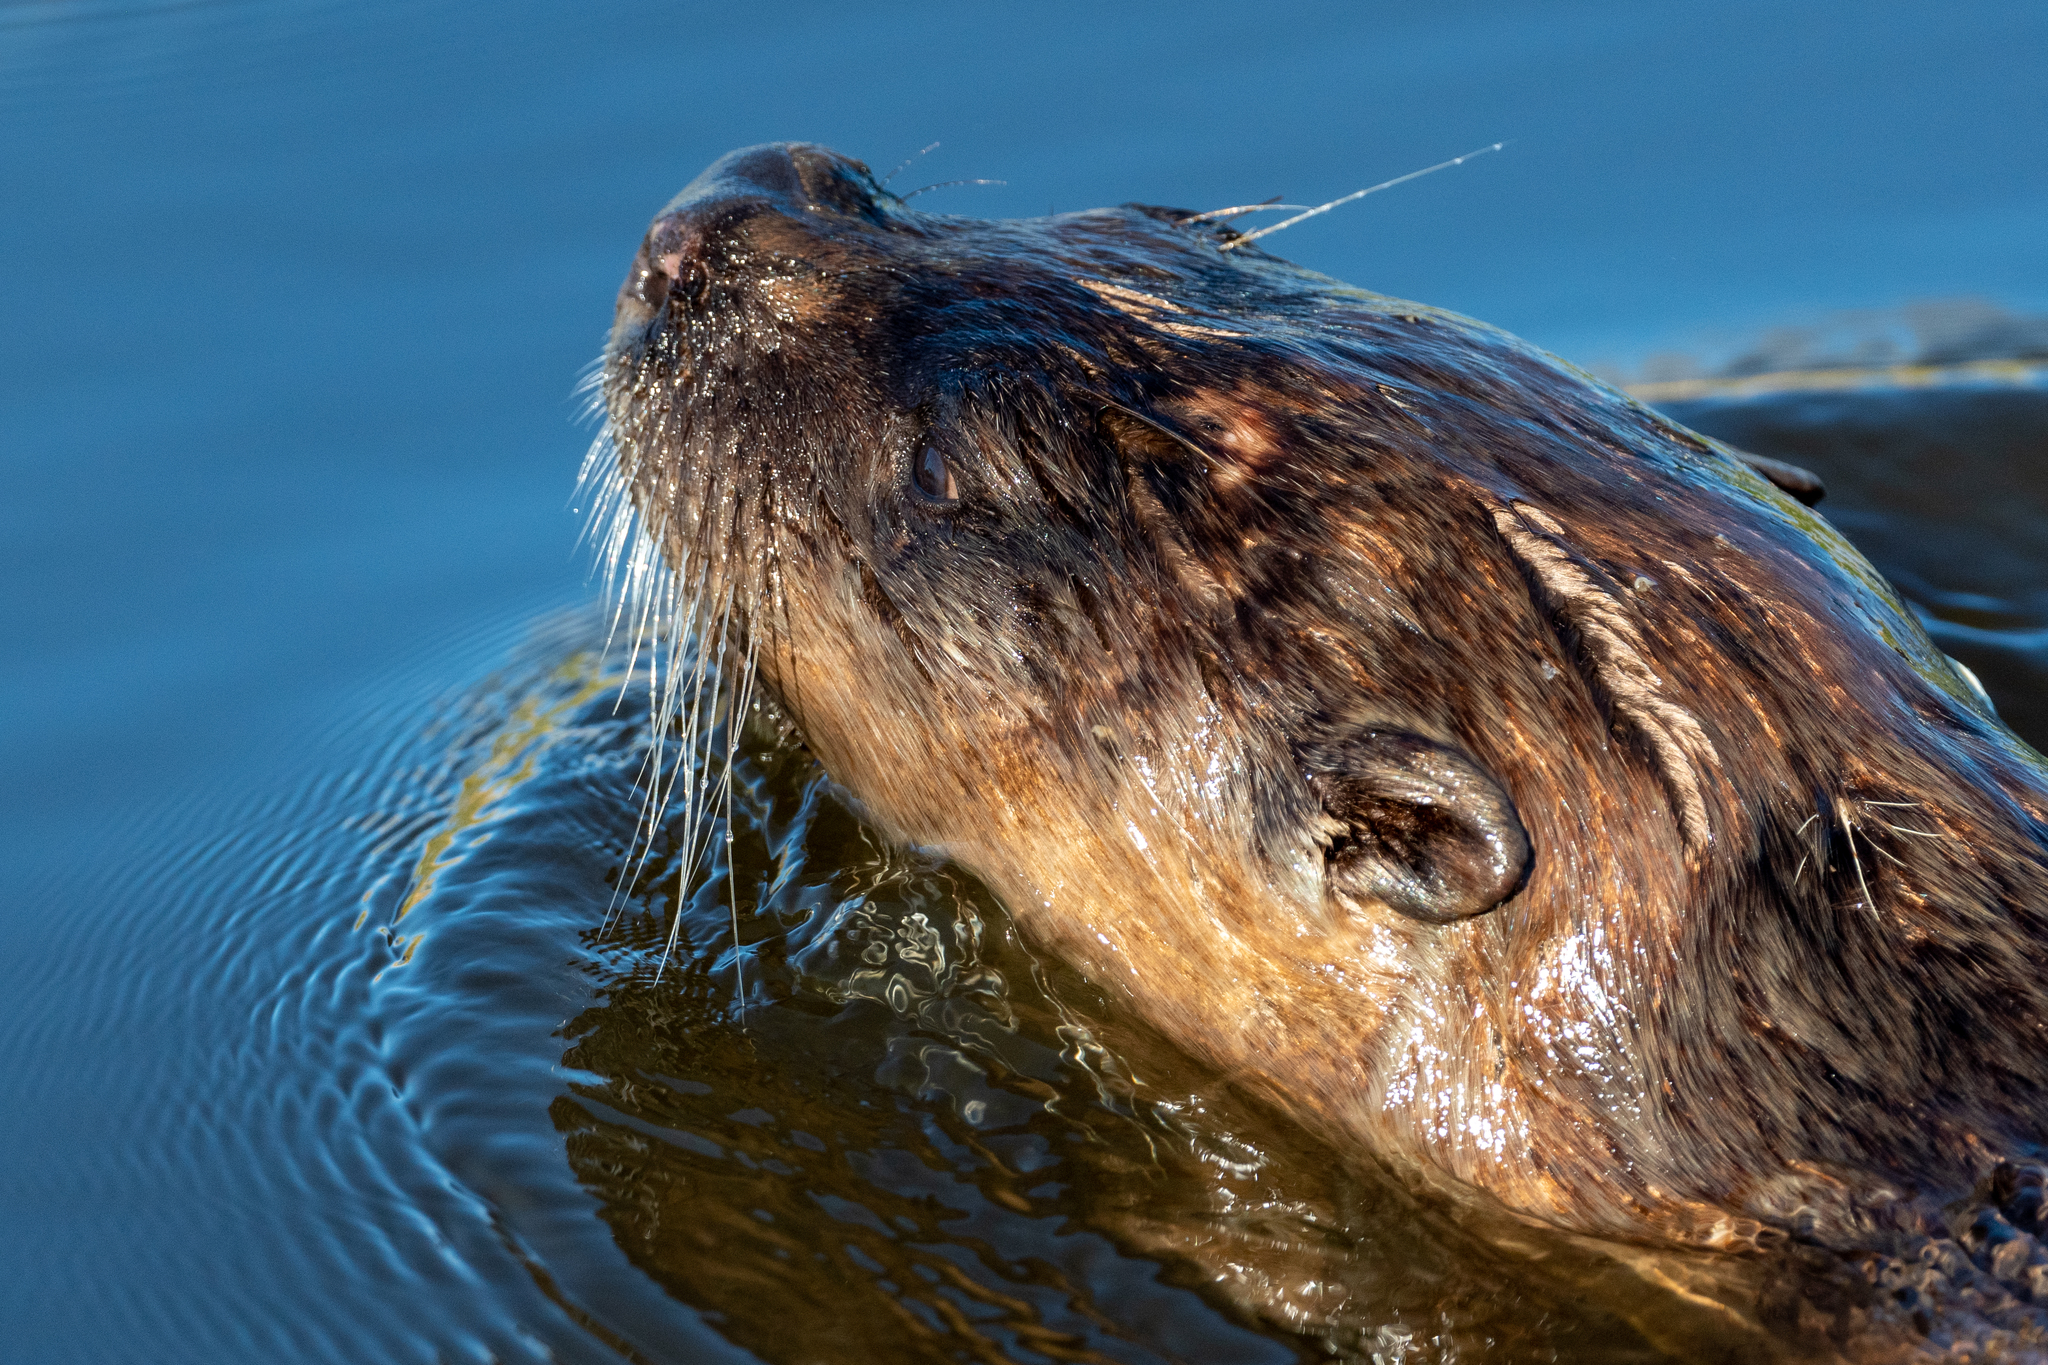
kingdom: Animalia
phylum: Chordata
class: Mammalia
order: Carnivora
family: Mustelidae
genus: Lontra
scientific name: Lontra canadensis
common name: North american river otter
